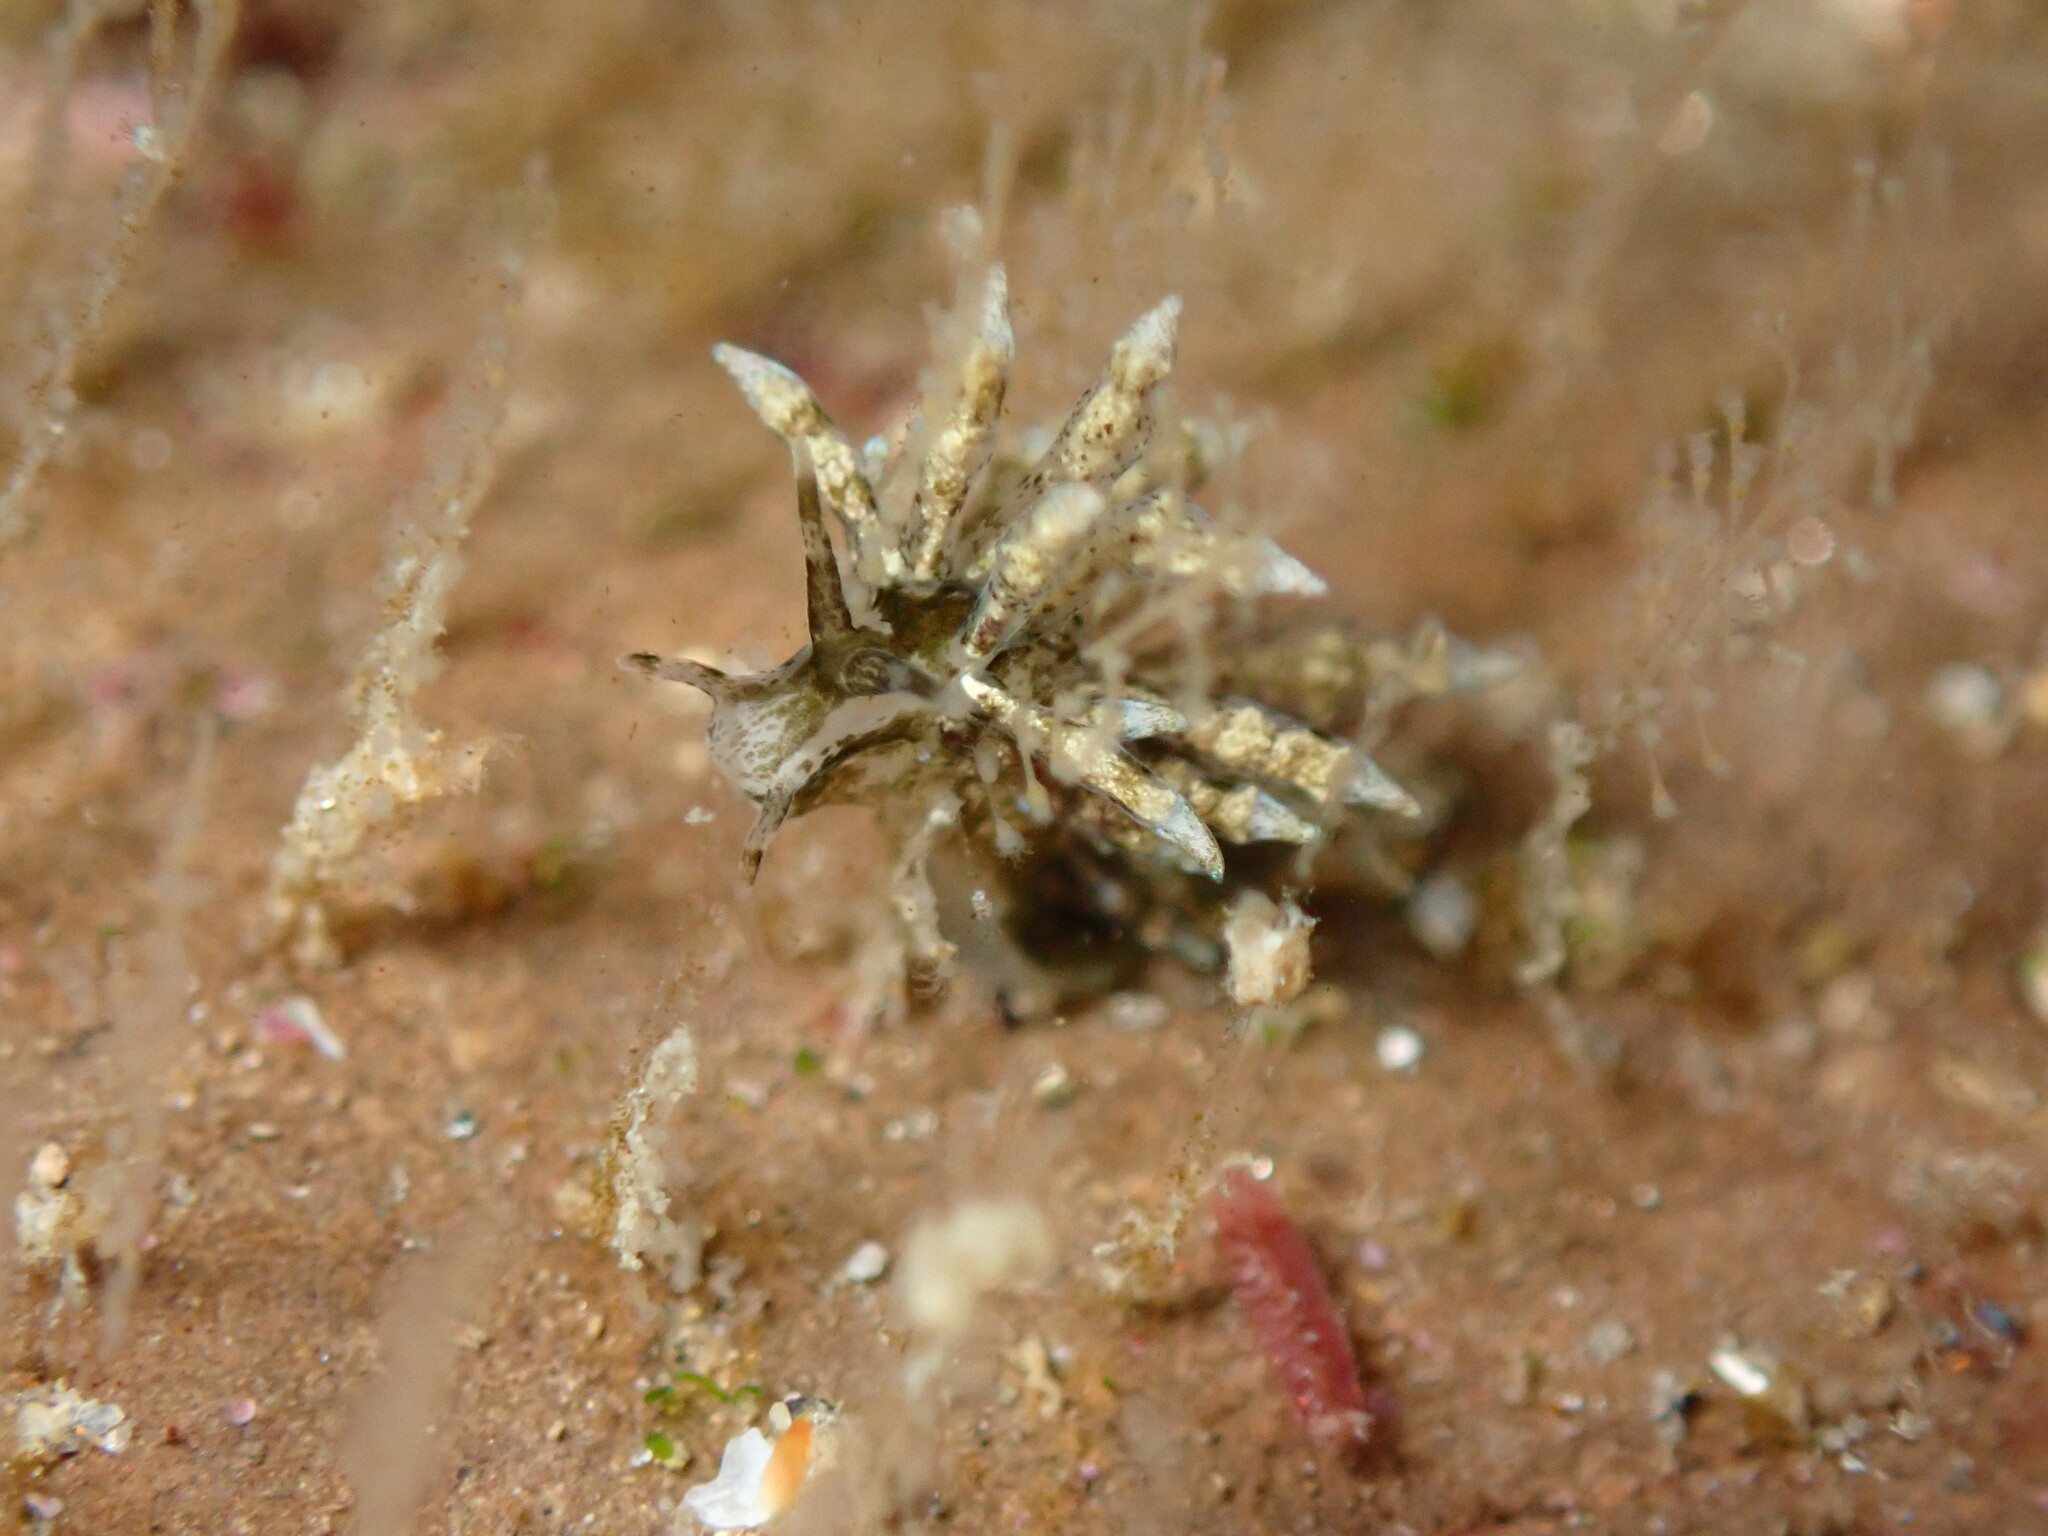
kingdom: Animalia
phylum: Mollusca
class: Gastropoda
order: Nudibranchia
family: Eubranchidae
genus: Eubranchus
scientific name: Eubranchus rustyus
